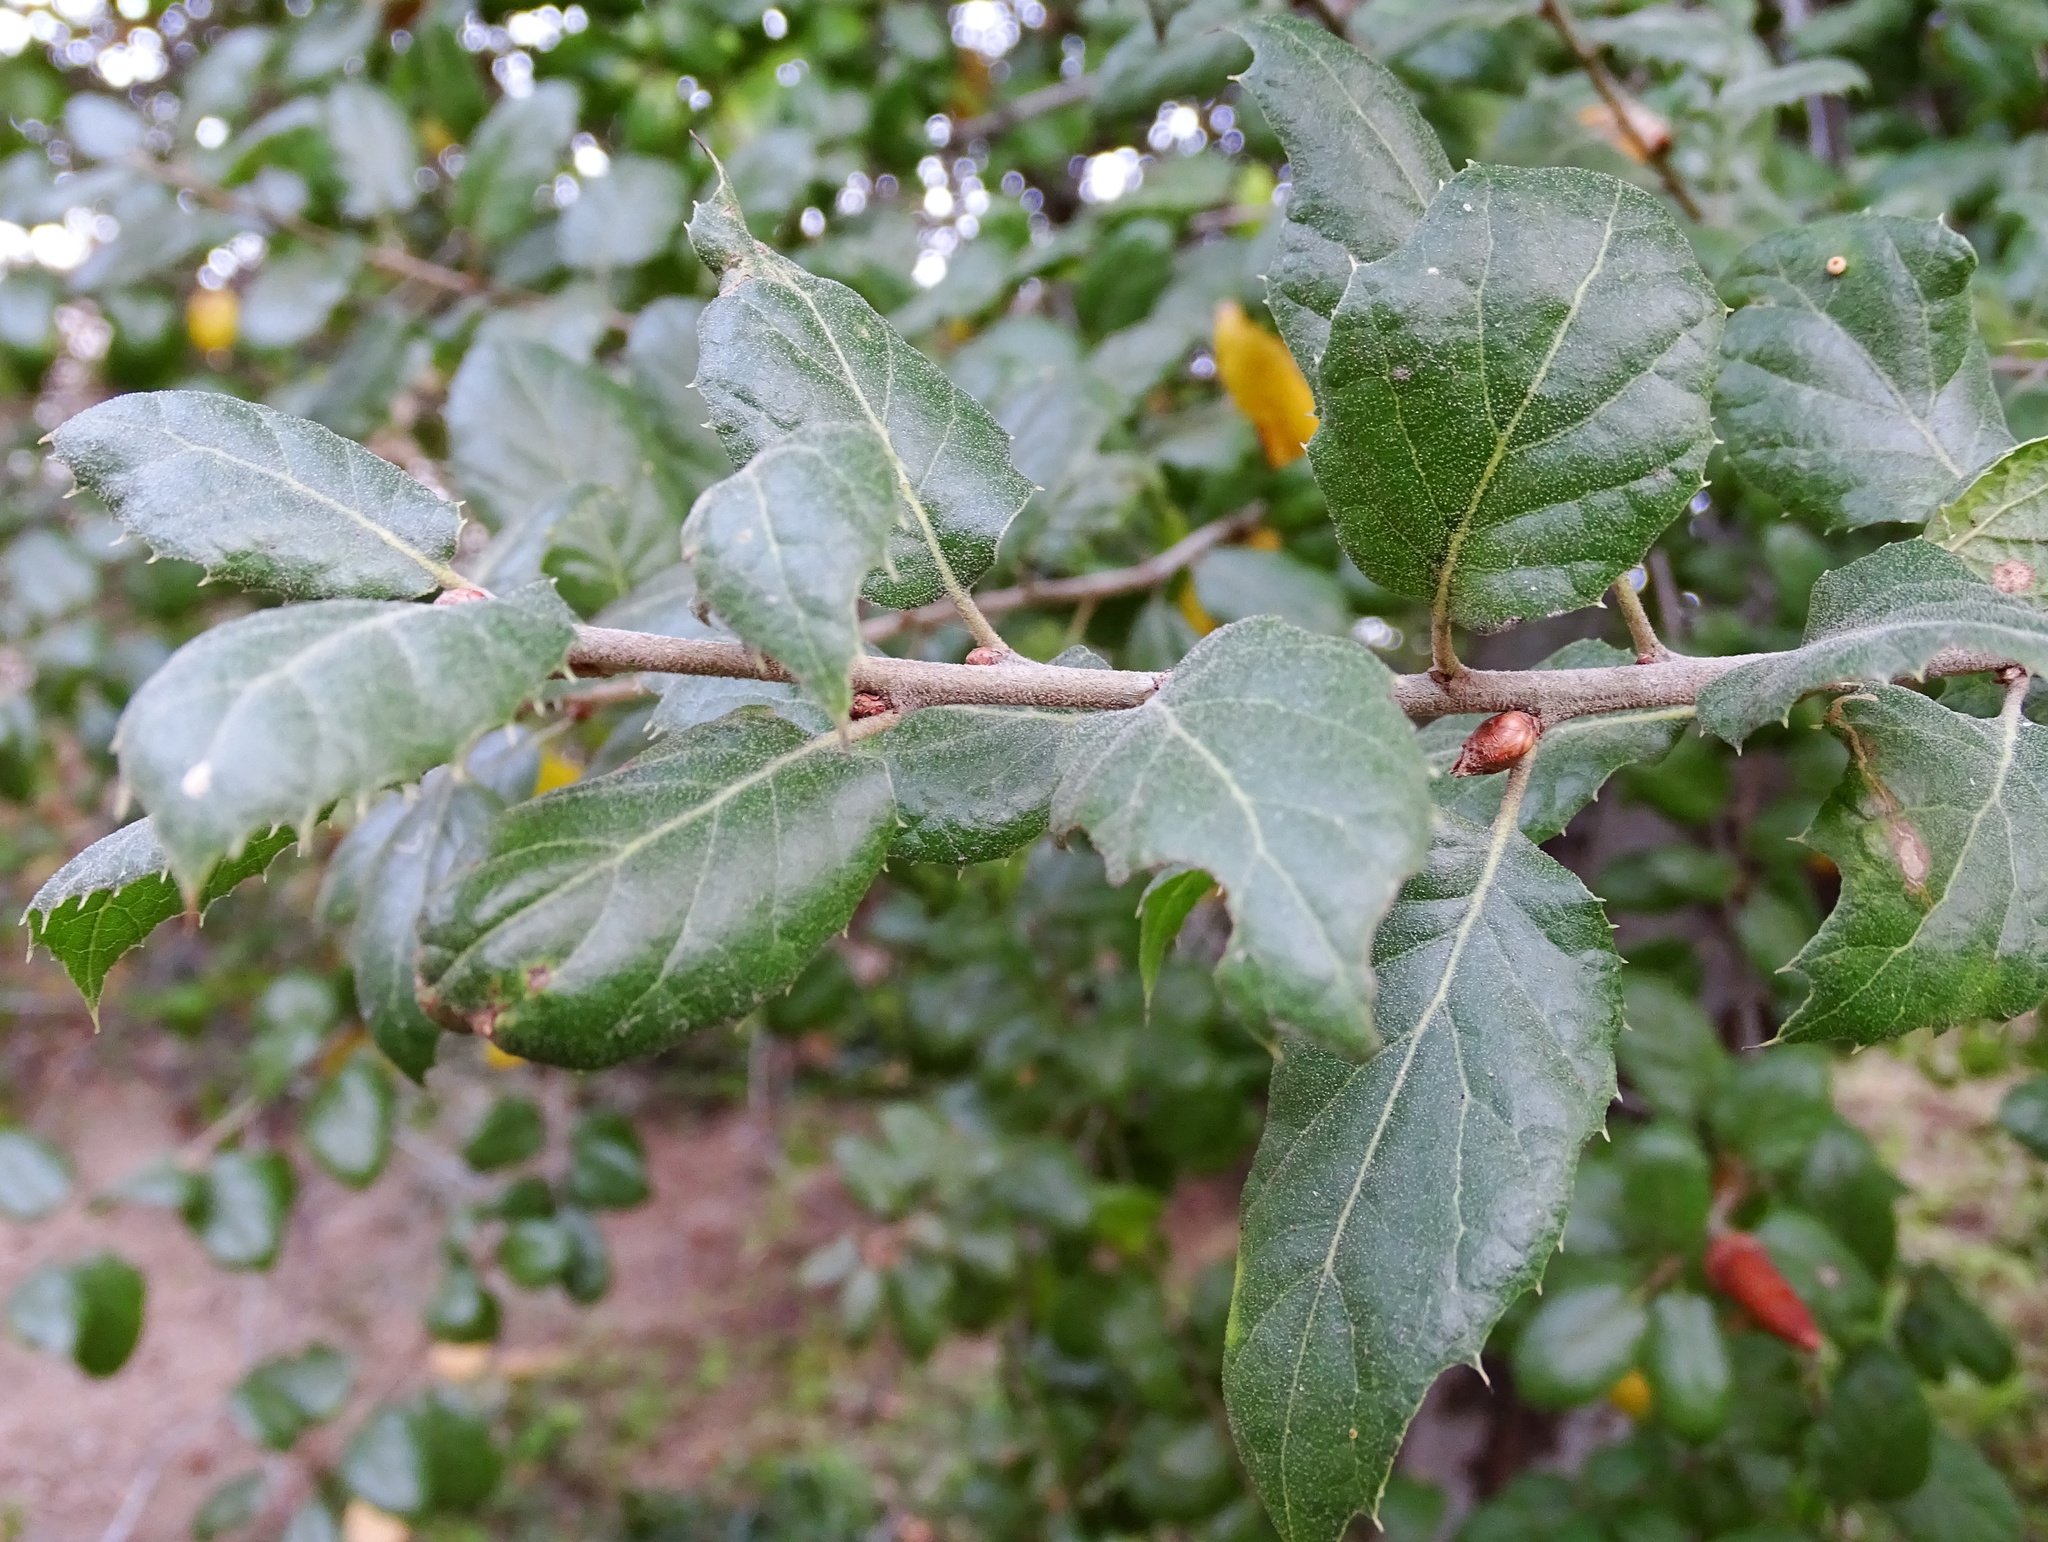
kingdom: Plantae
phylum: Tracheophyta
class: Magnoliopsida
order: Fagales
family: Fagaceae
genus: Quercus
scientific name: Quercus agrifolia
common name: California live oak
